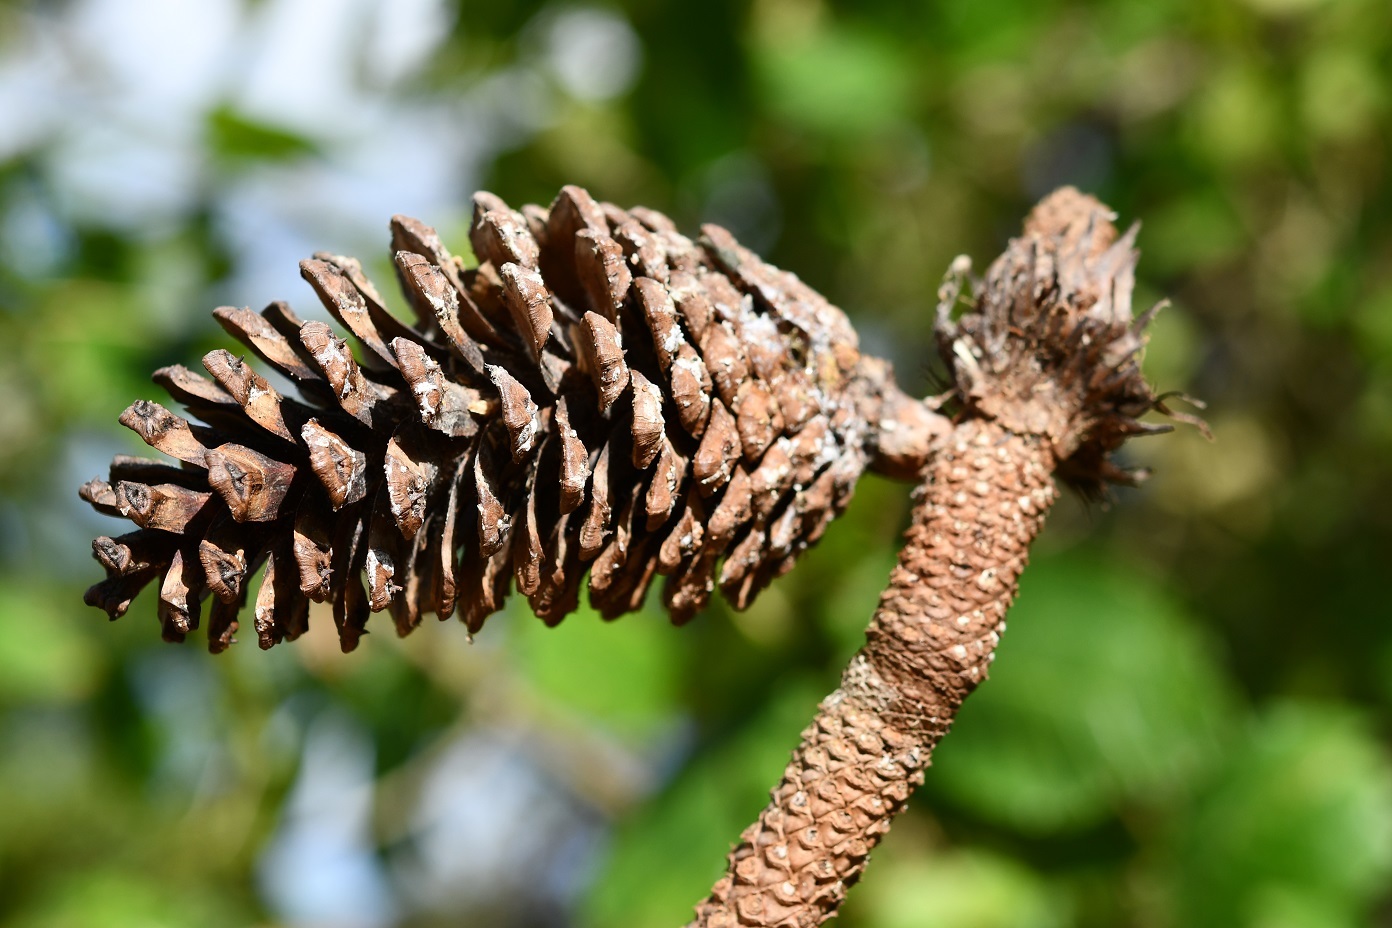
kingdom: Plantae
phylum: Tracheophyta
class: Pinopsida
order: Pinales
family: Pinaceae
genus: Pinus
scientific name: Pinus montezumae
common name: Montezuma pine
